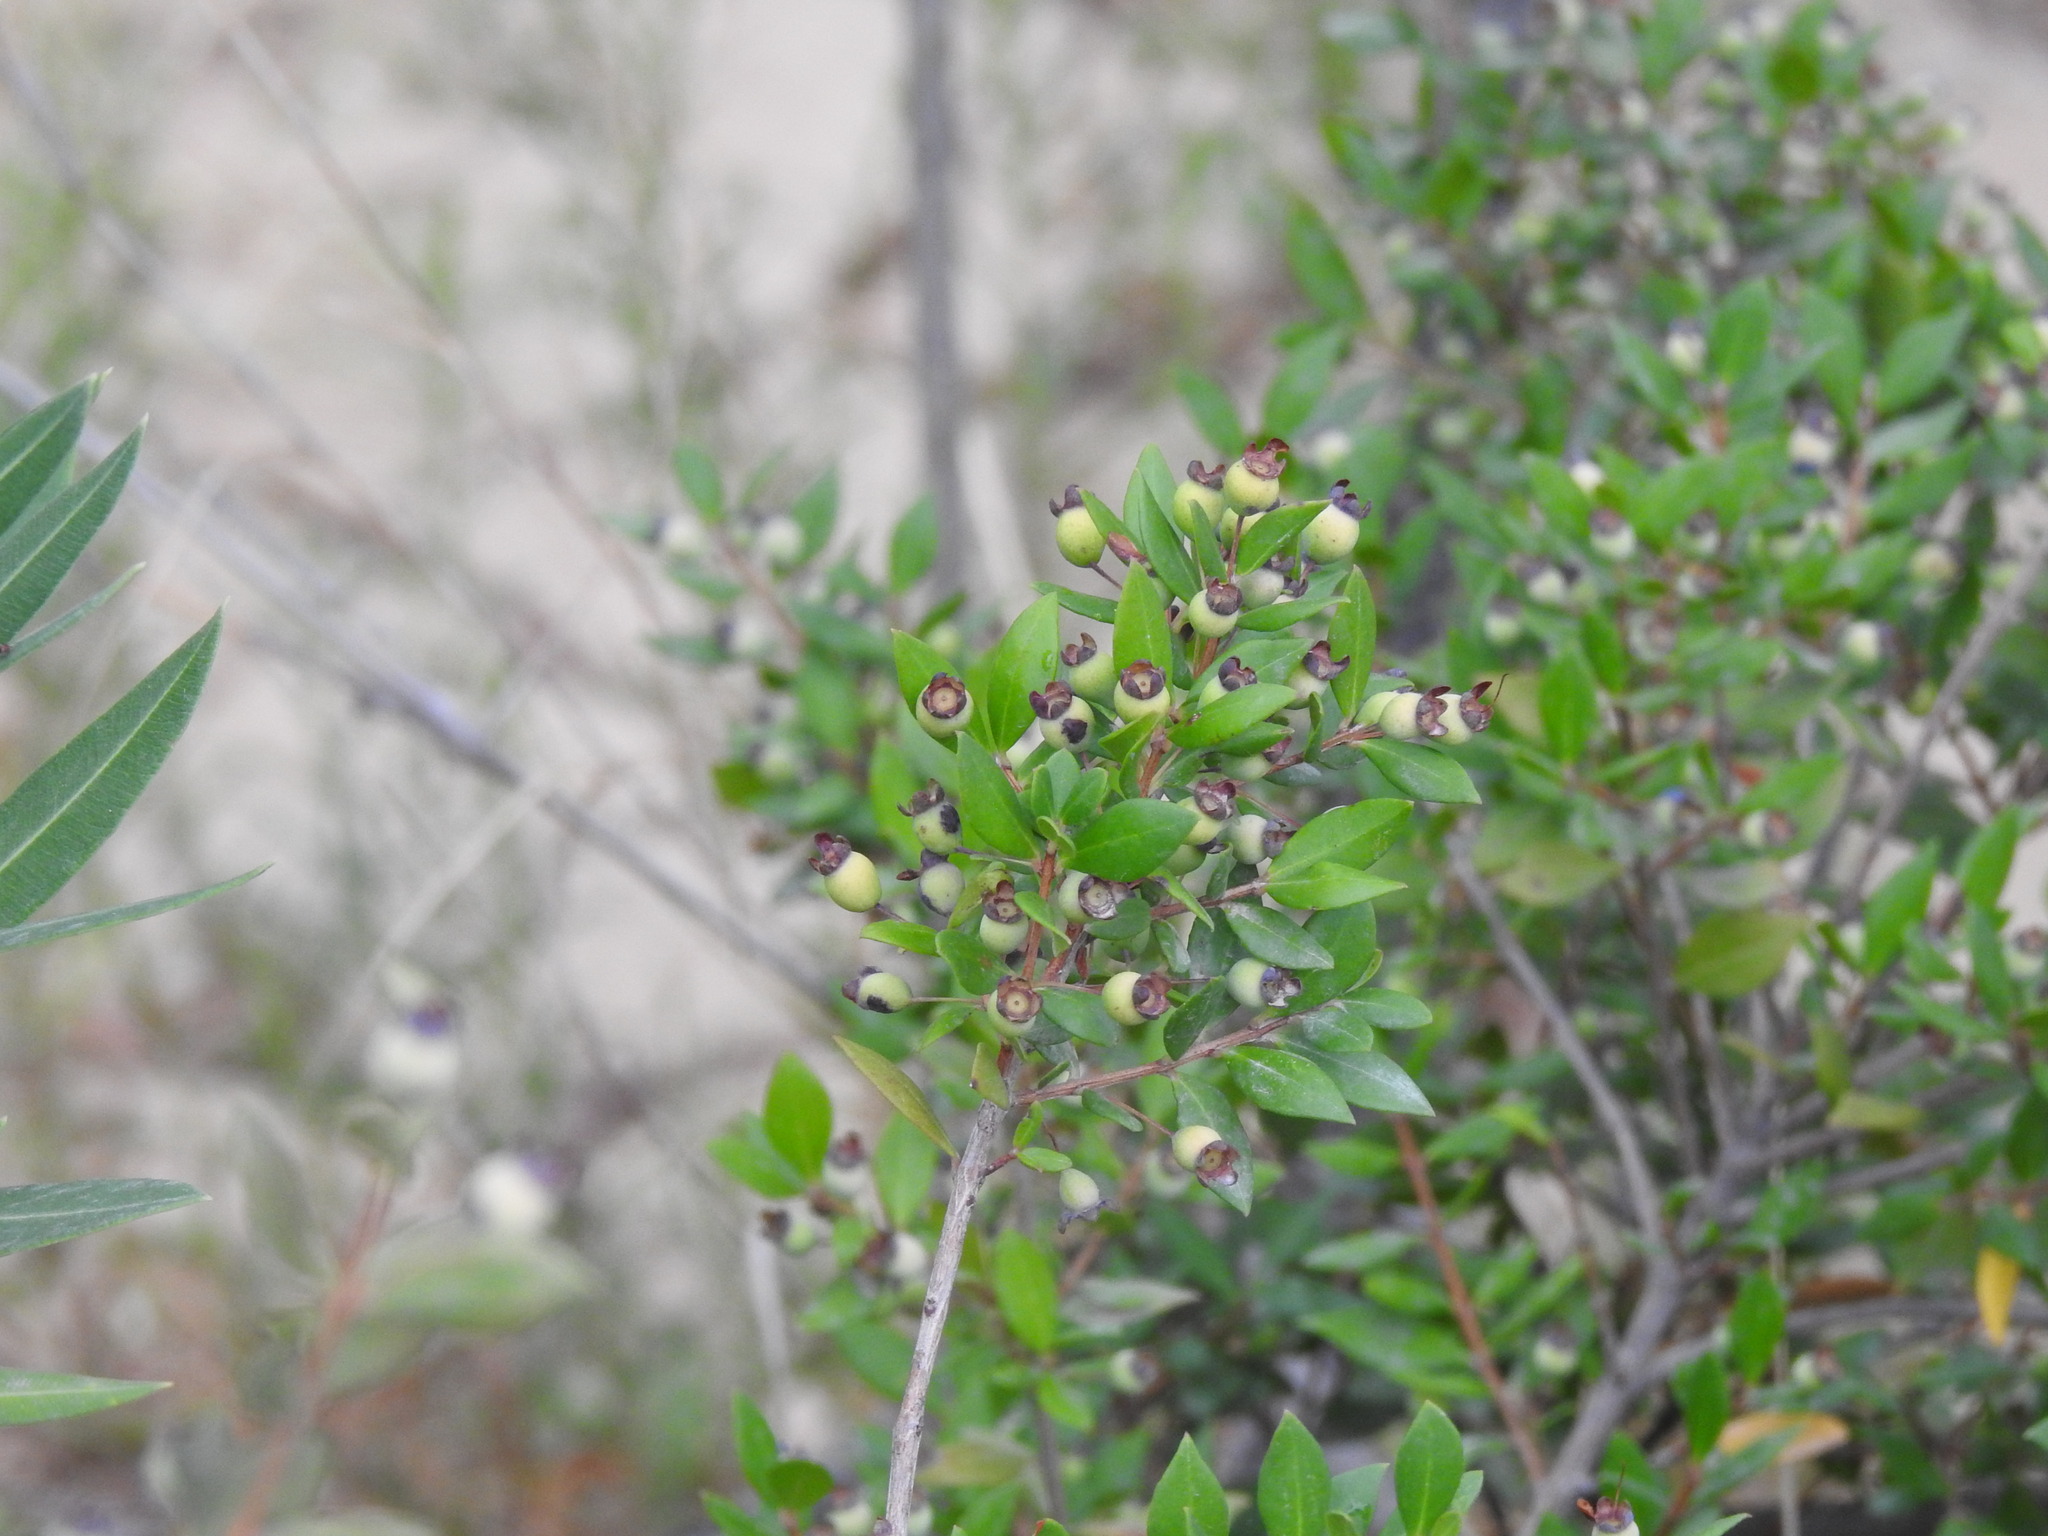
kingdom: Plantae
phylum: Tracheophyta
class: Magnoliopsida
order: Myrtales
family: Myrtaceae
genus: Myrtus
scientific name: Myrtus communis
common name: Myrtle
